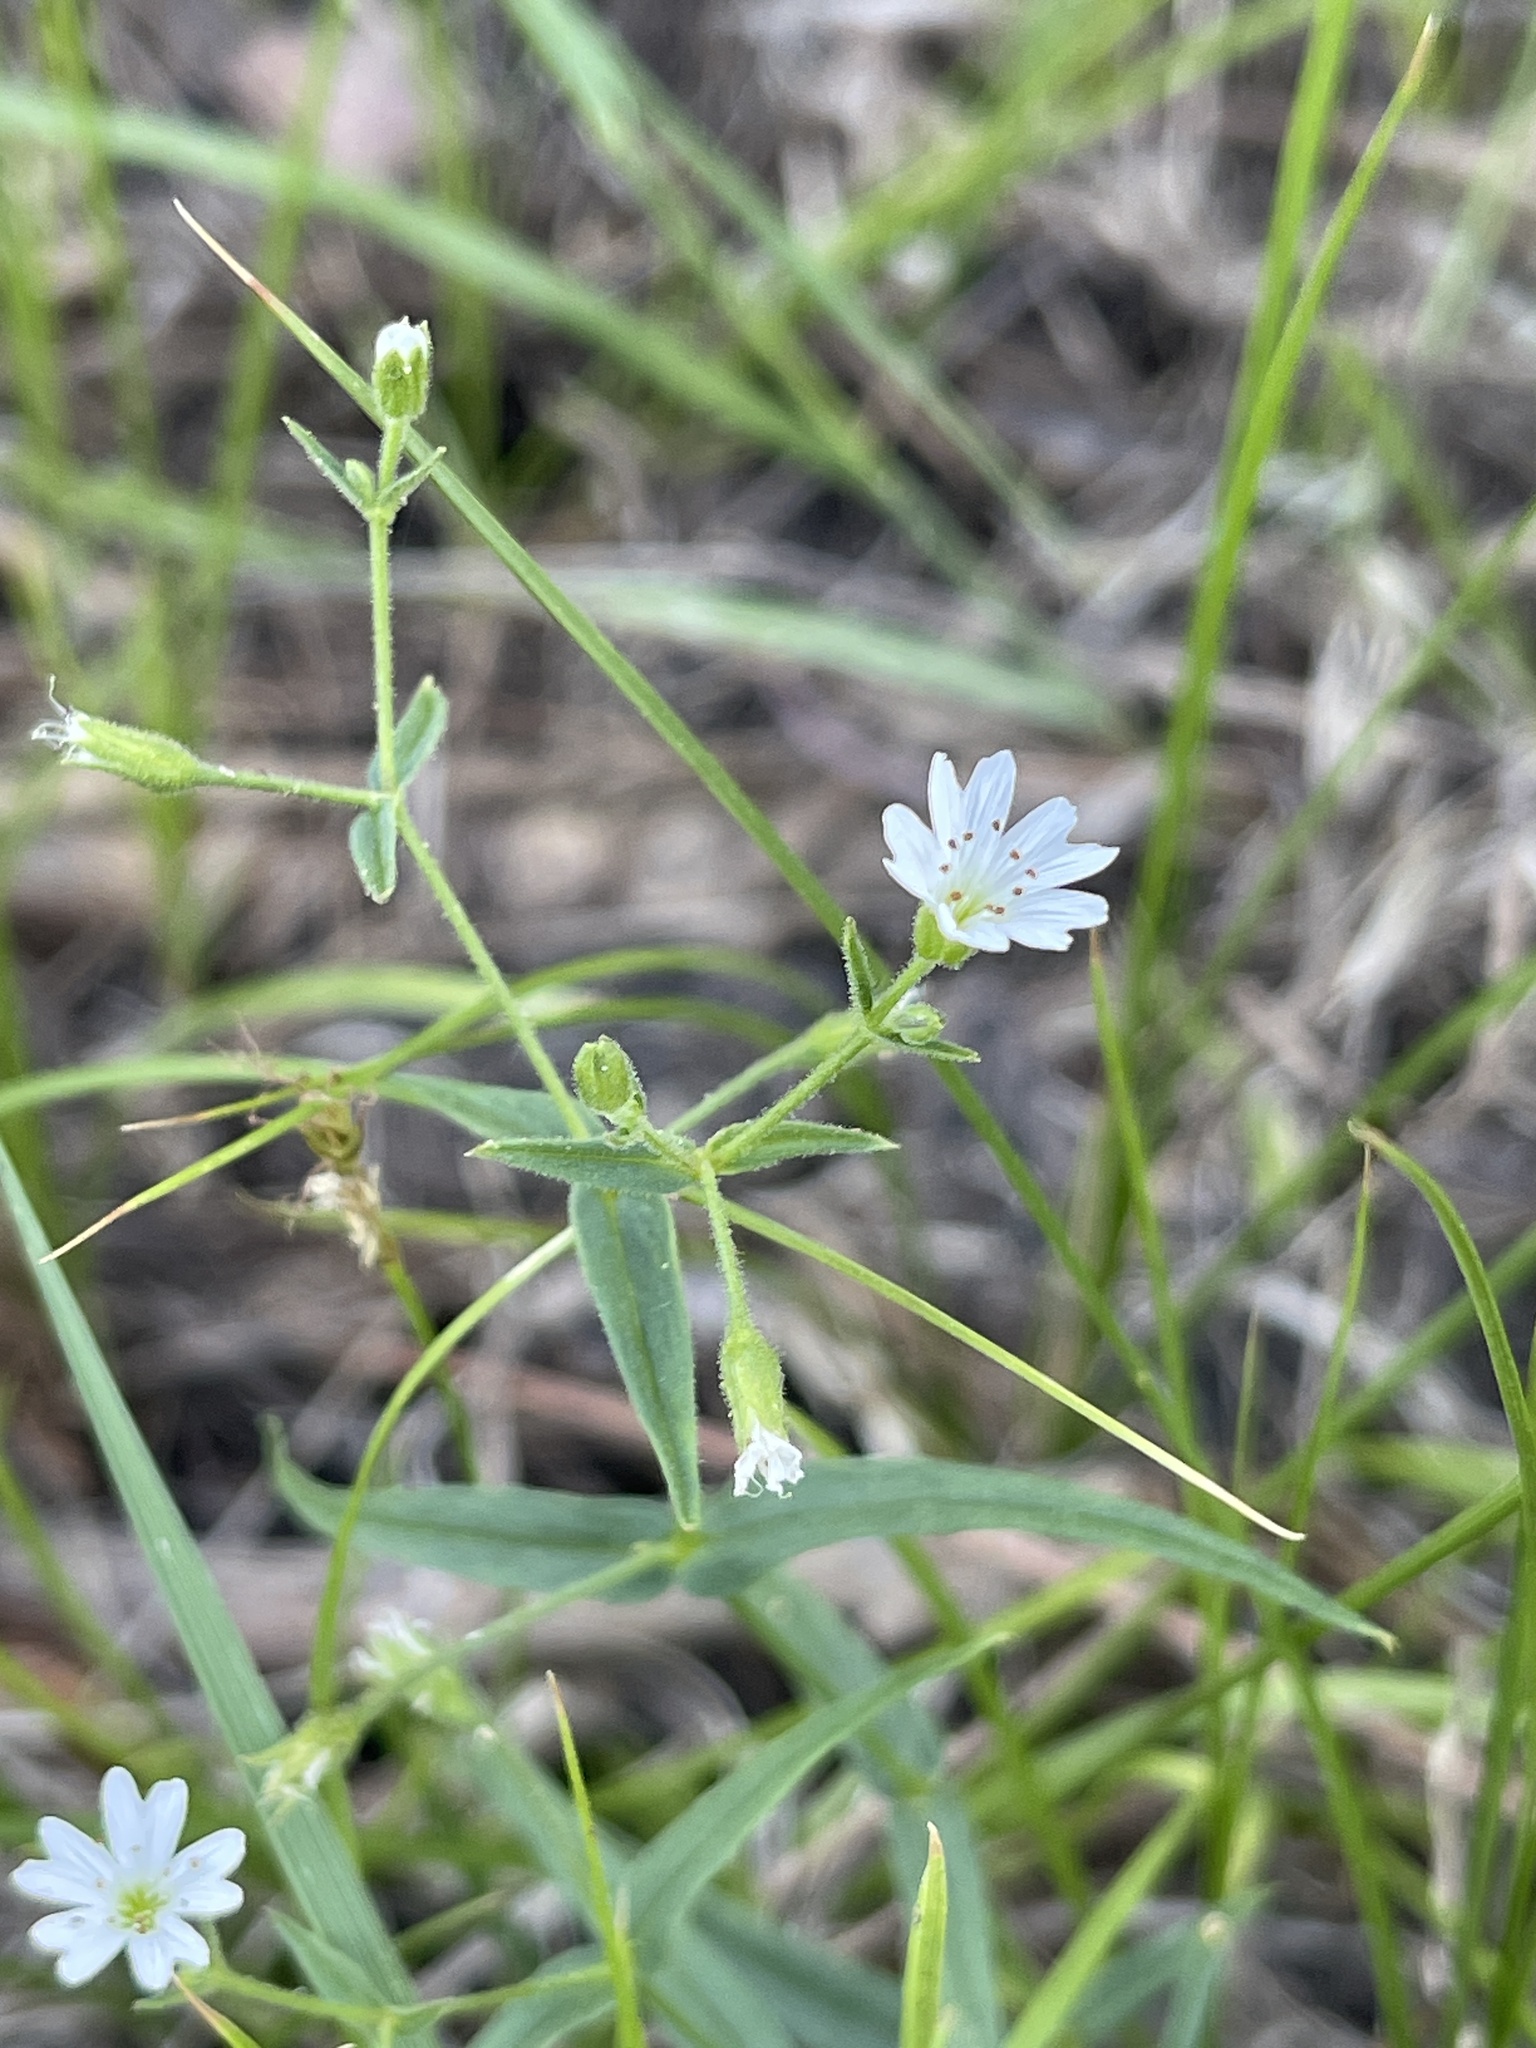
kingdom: Plantae
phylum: Tracheophyta
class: Magnoliopsida
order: Caryophyllales
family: Caryophyllaceae
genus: Schizotechium
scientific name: Schizotechium jamesianum
